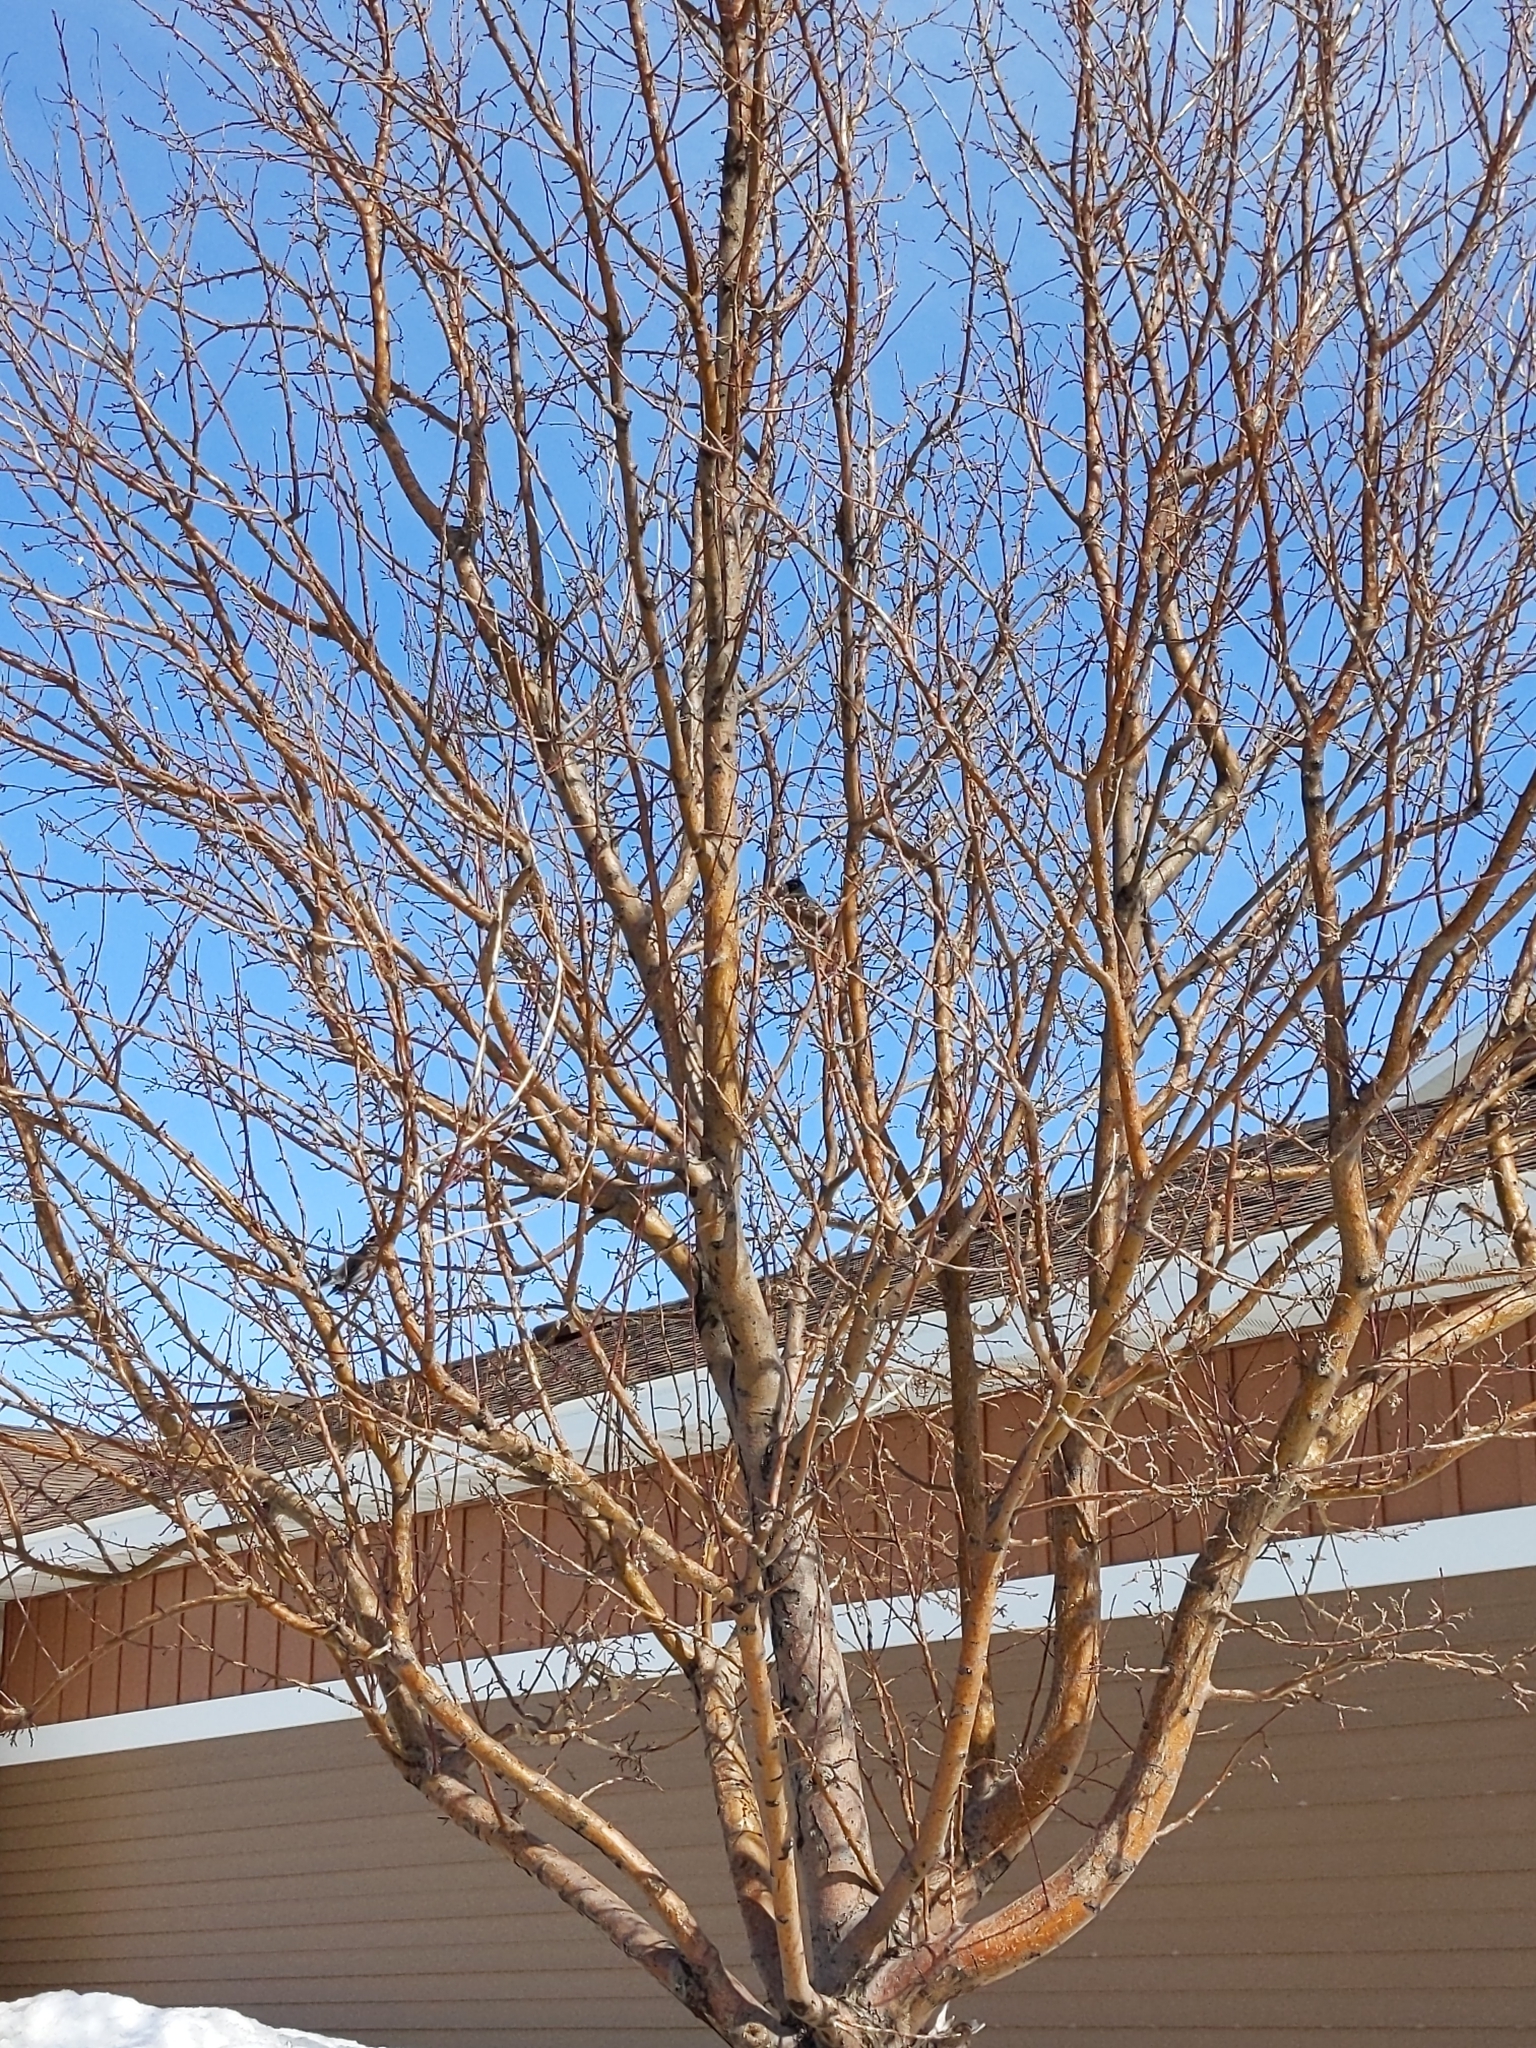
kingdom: Animalia
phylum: Chordata
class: Aves
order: Passeriformes
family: Turdidae
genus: Turdus
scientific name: Turdus migratorius
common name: American robin
